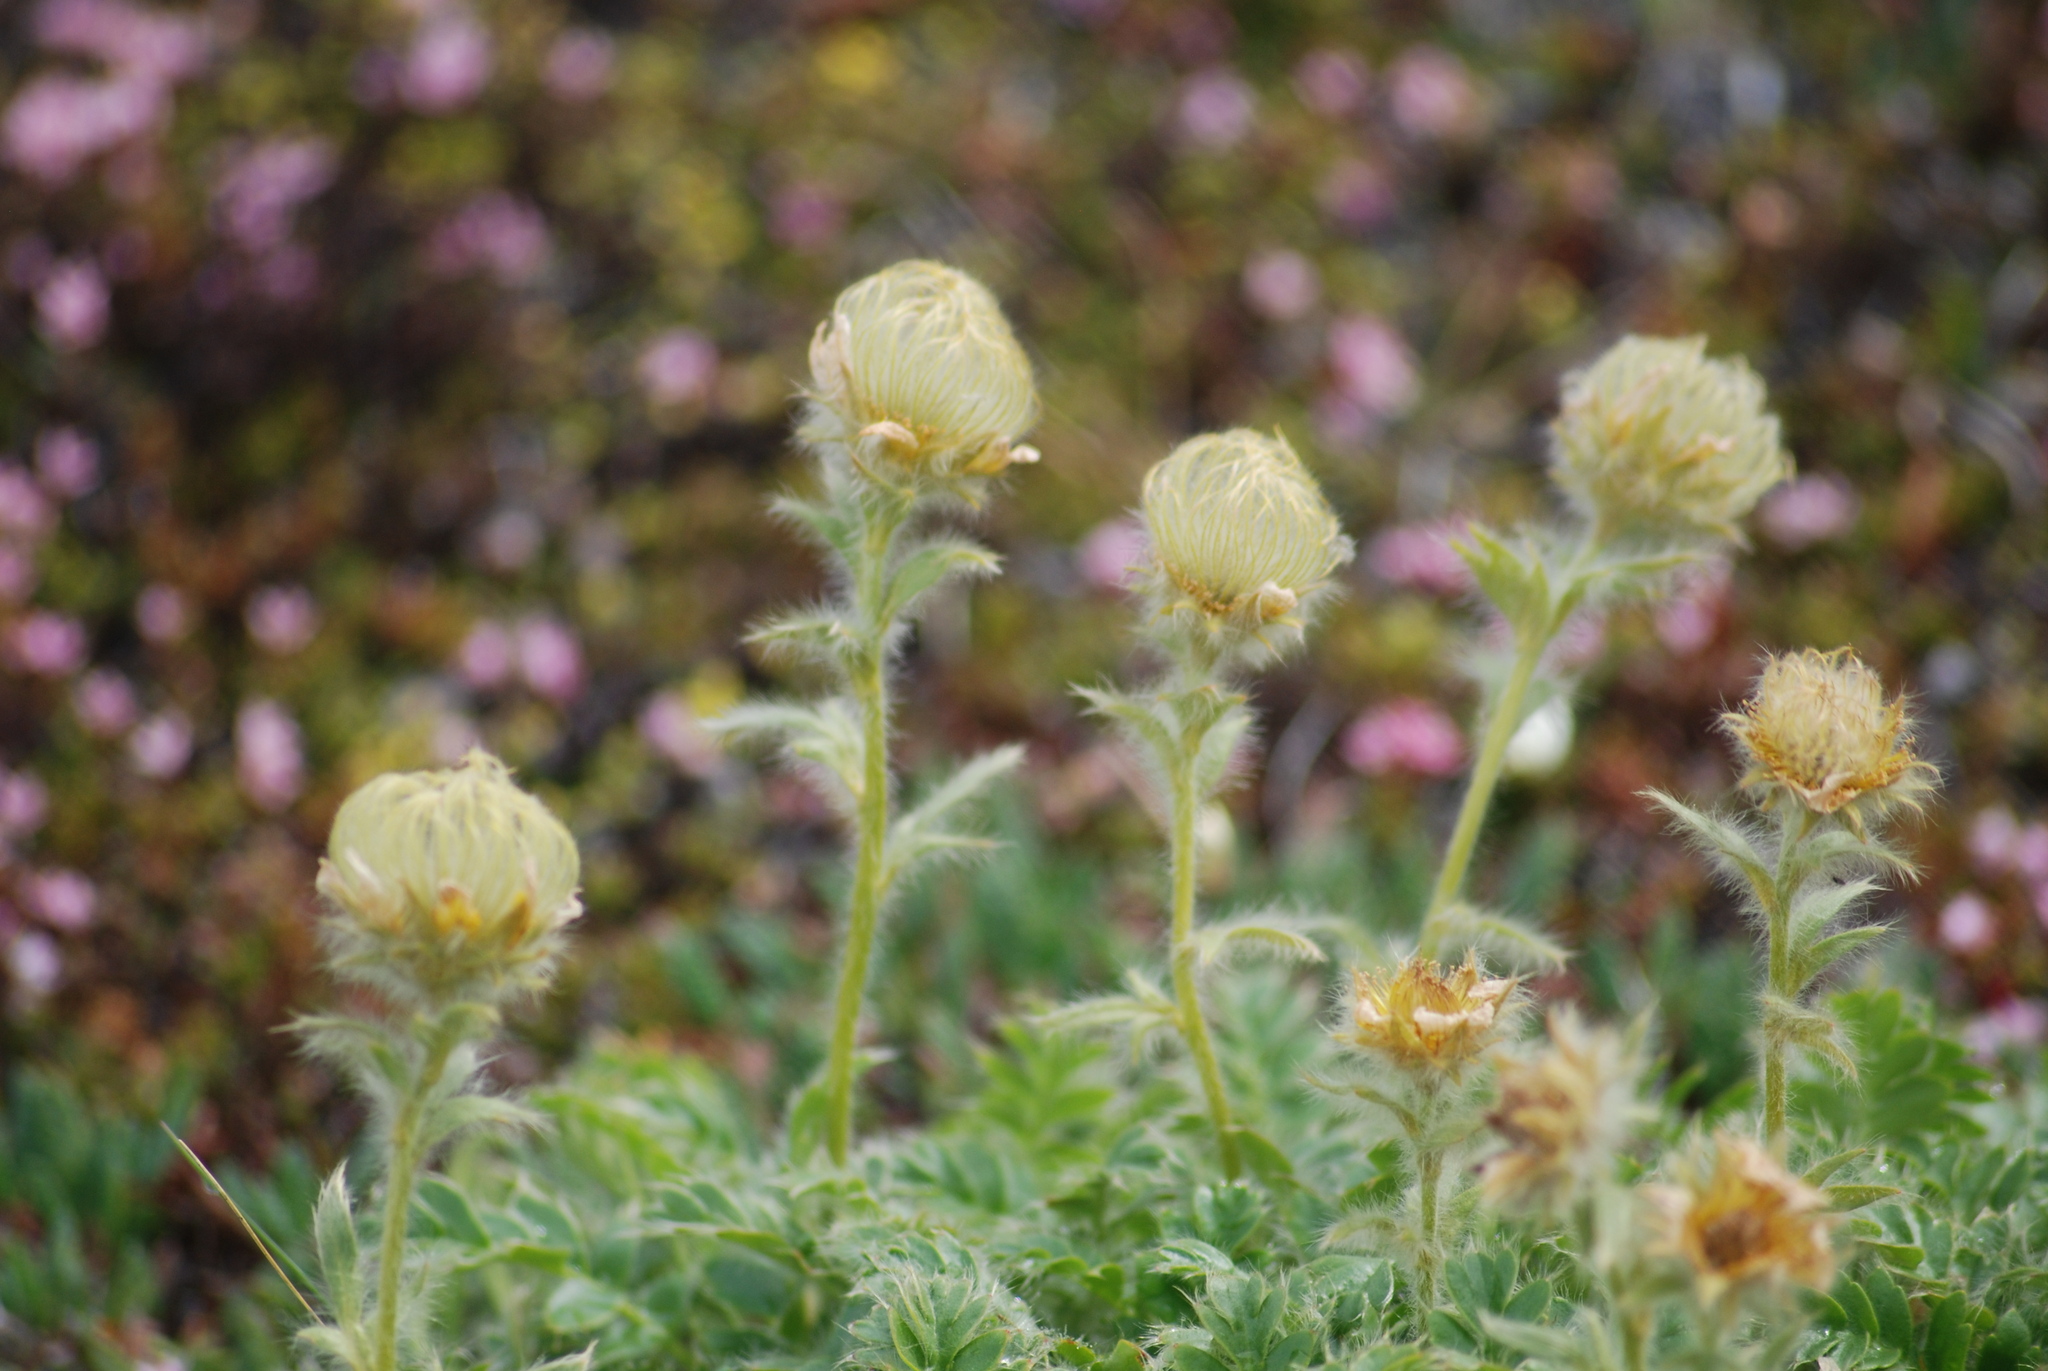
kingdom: Plantae
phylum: Tracheophyta
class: Magnoliopsida
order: Rosales
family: Rosaceae
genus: Geum
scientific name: Geum glaciale
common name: Glacier avens
